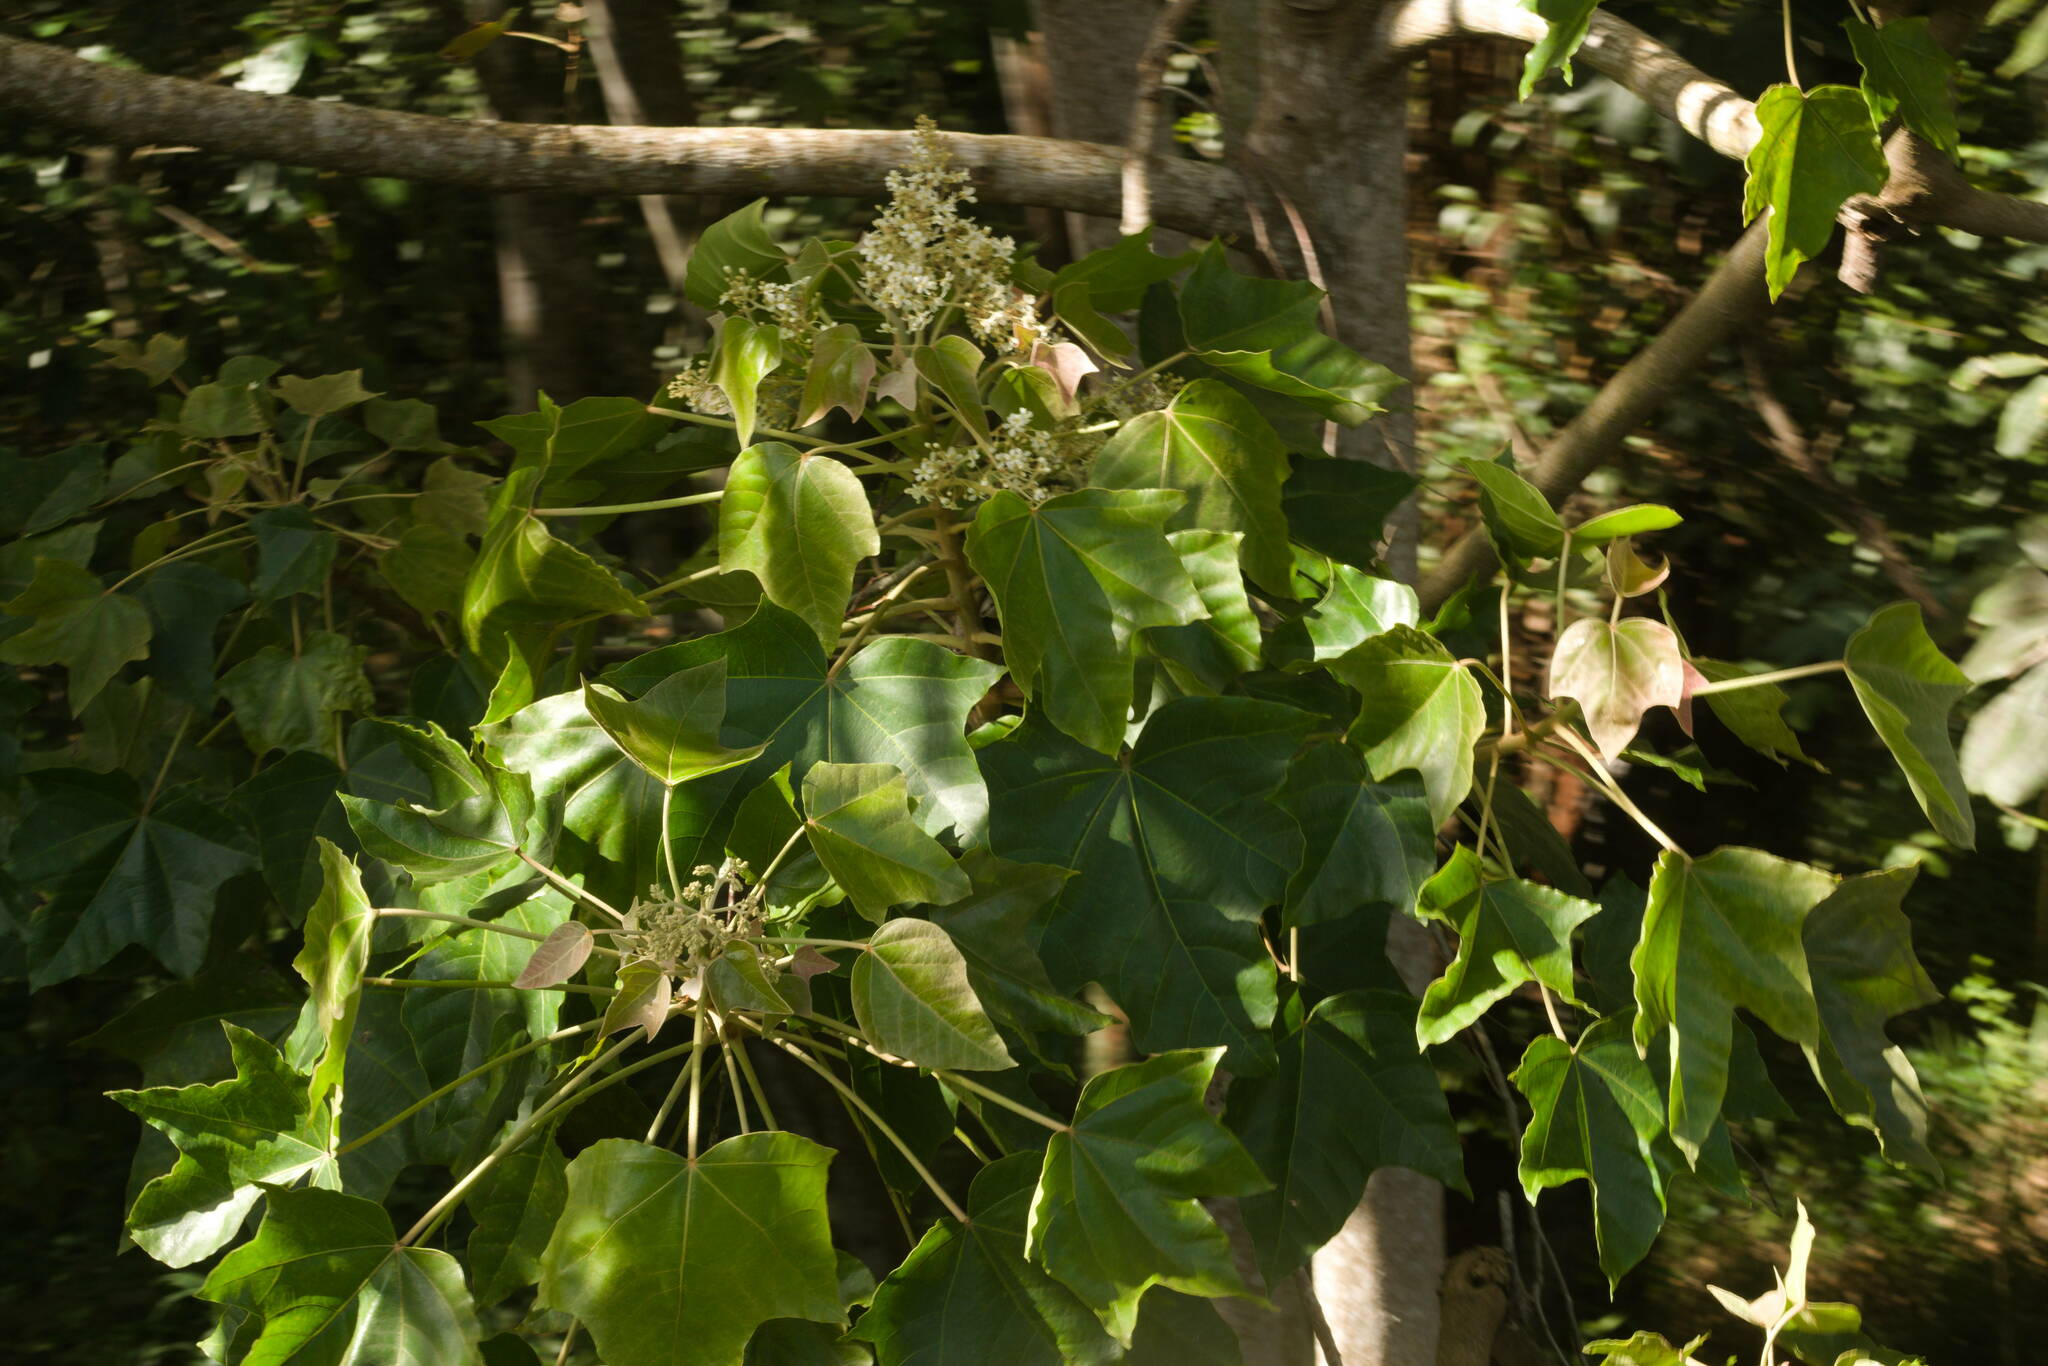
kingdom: Plantae
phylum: Tracheophyta
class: Magnoliopsida
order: Malpighiales
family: Euphorbiaceae
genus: Aleurites
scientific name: Aleurites moluccanus
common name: Candlenut tree
